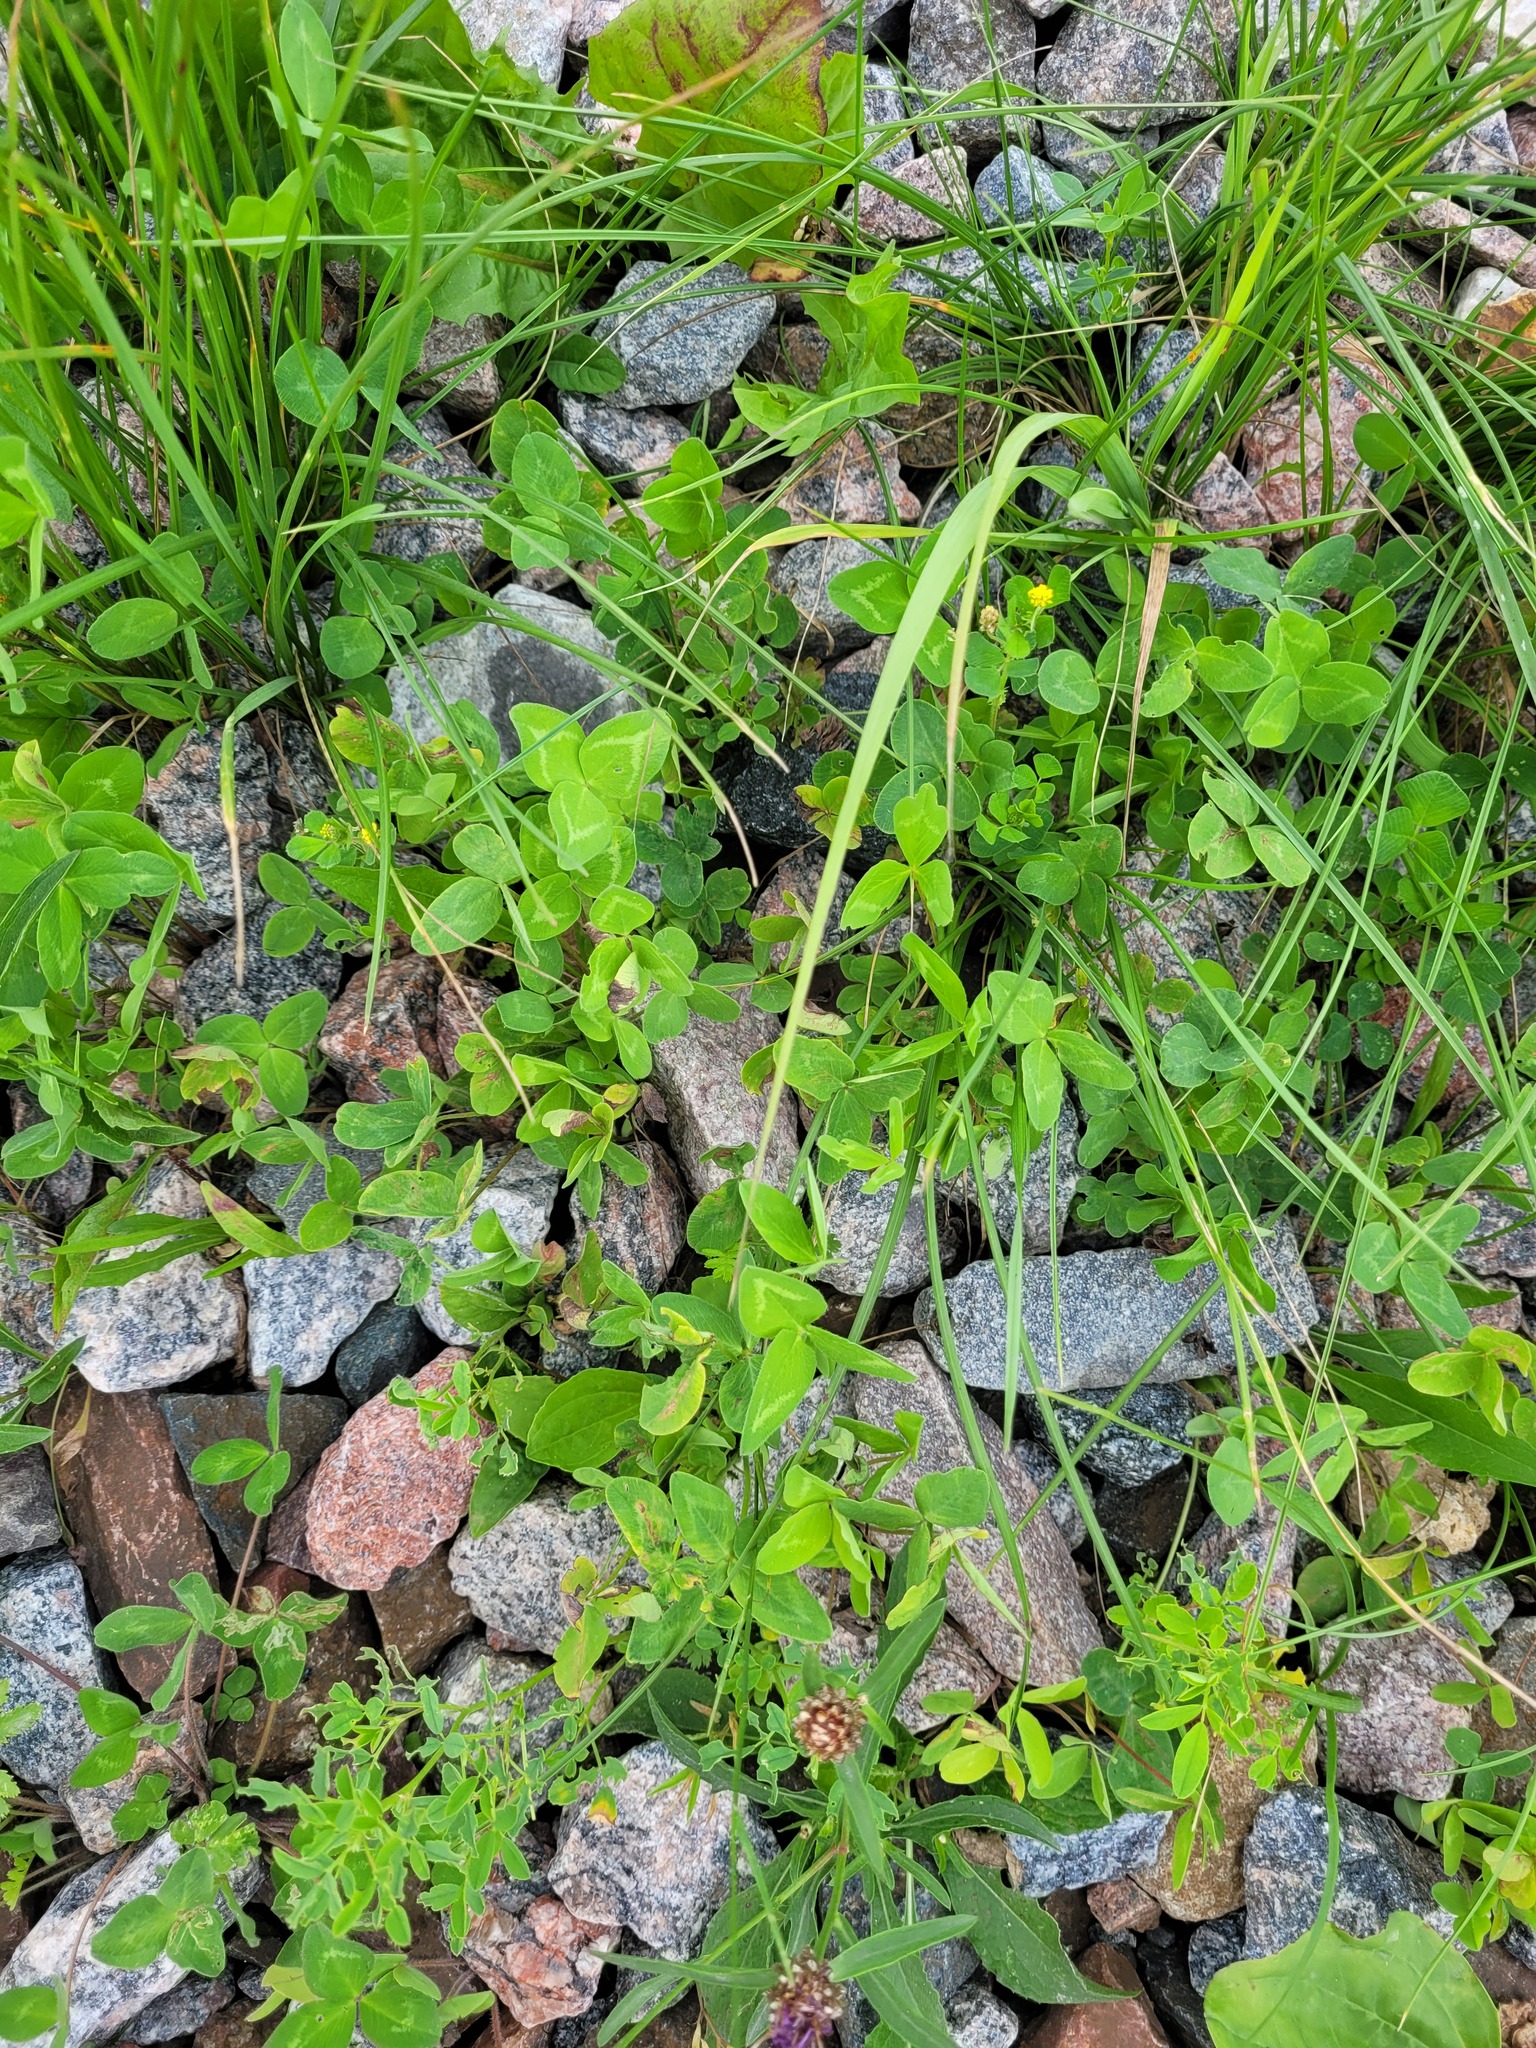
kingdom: Plantae
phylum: Tracheophyta
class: Magnoliopsida
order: Fabales
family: Fabaceae
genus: Trifolium
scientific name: Trifolium pratense
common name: Red clover
